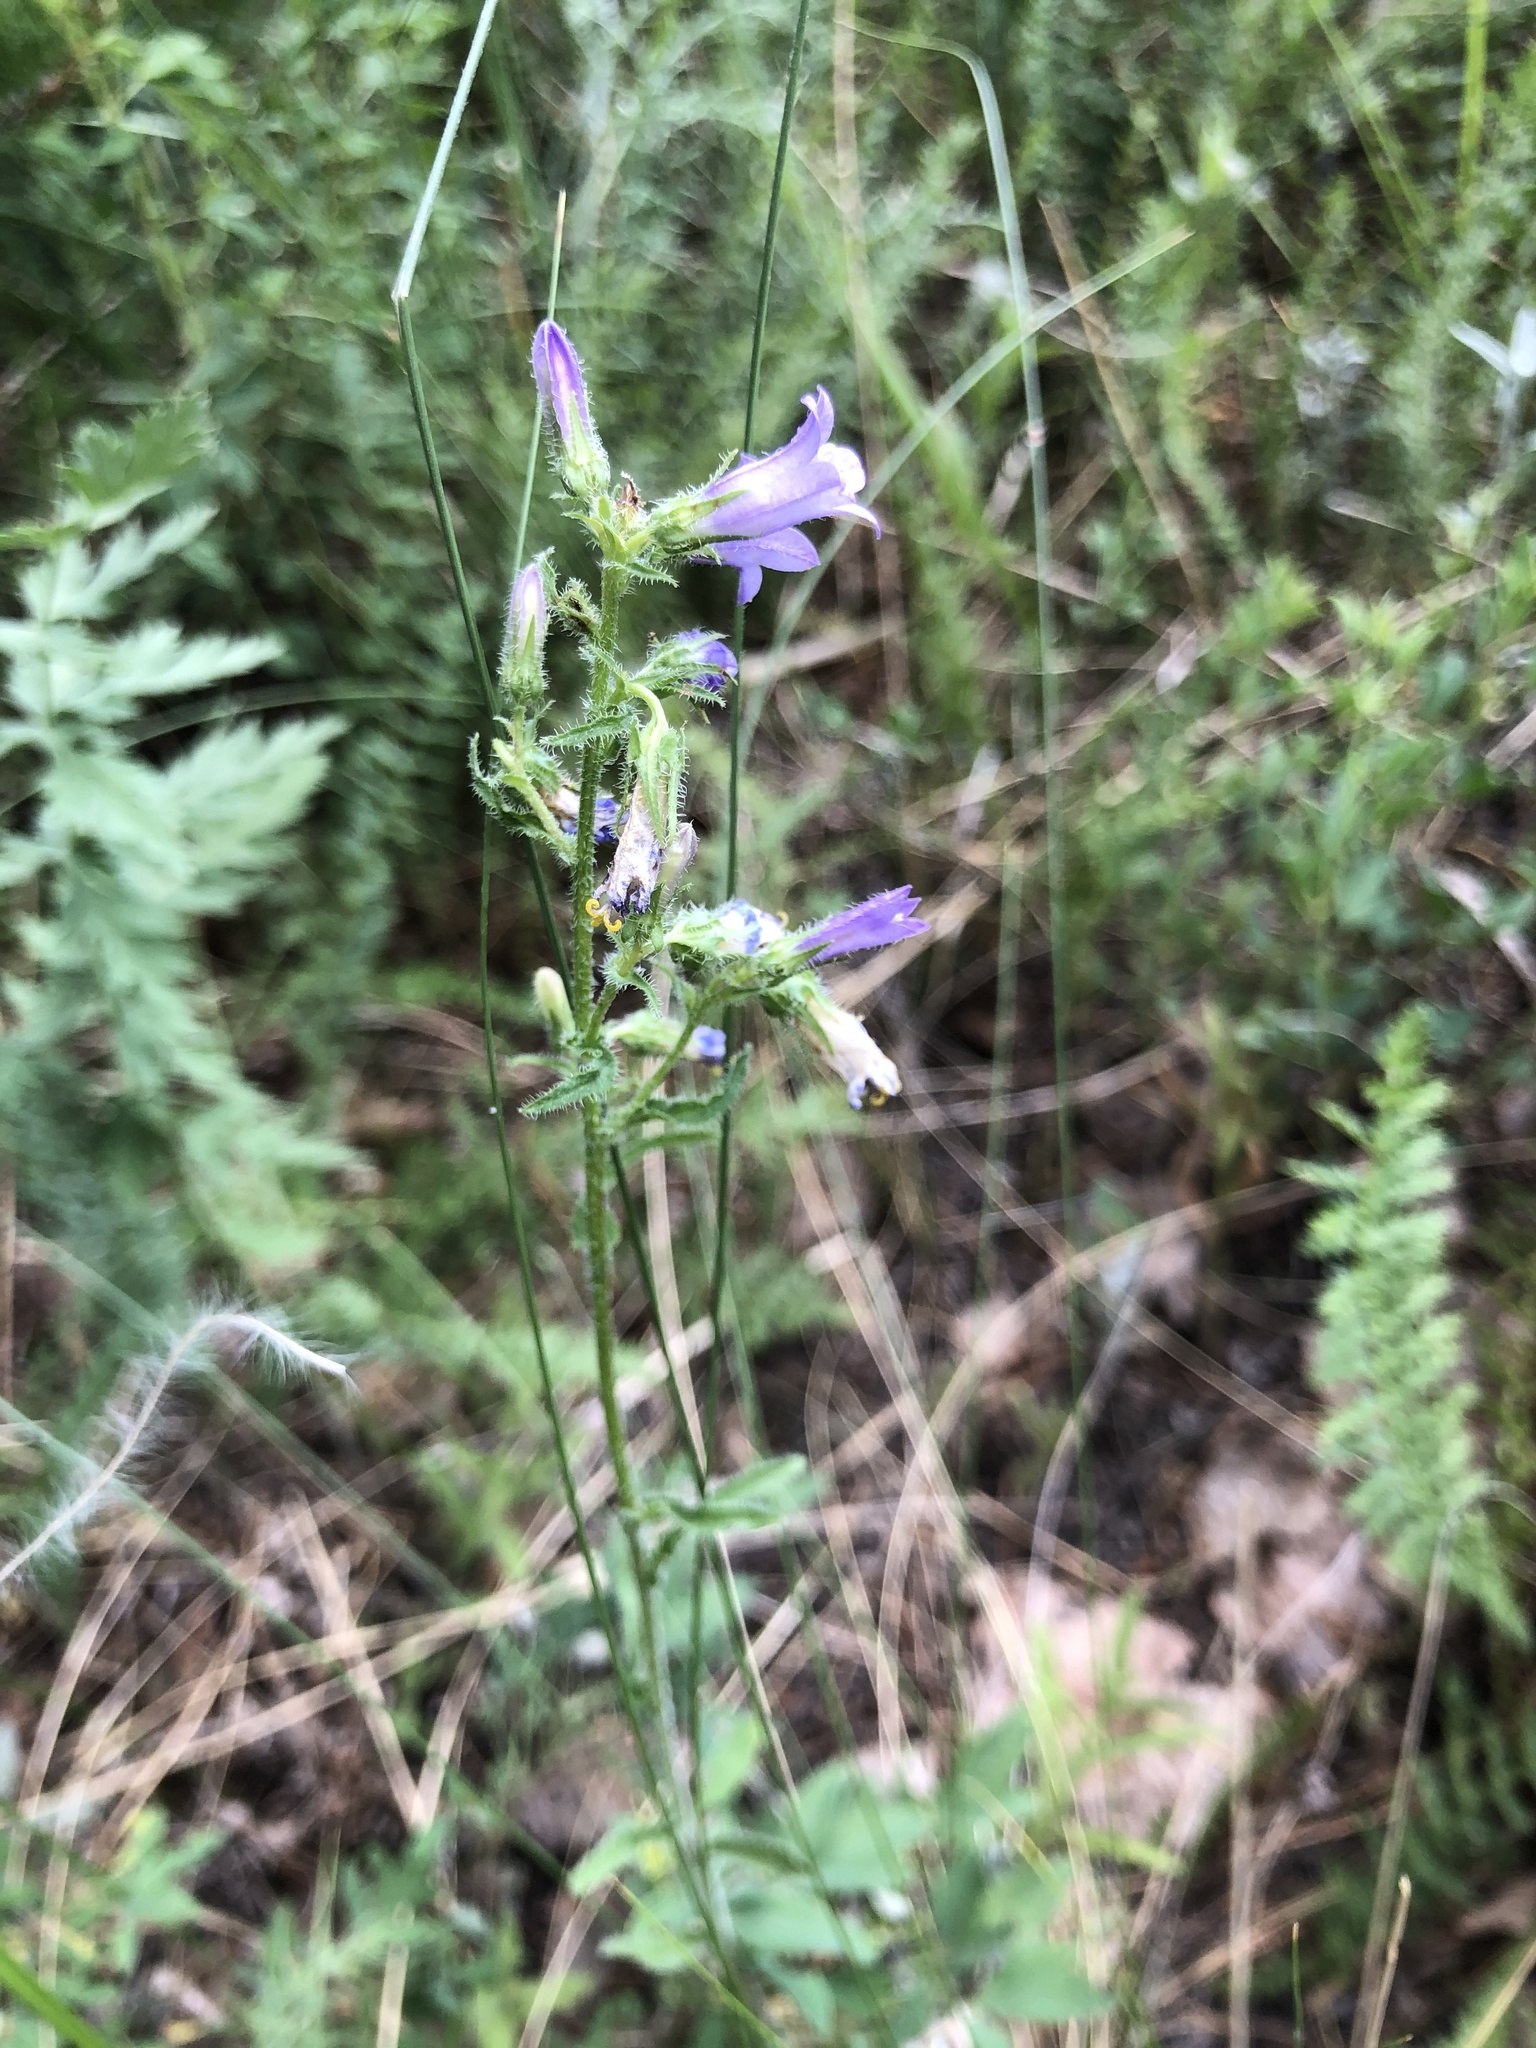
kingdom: Plantae
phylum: Tracheophyta
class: Magnoliopsida
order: Asterales
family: Campanulaceae
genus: Campanula
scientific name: Campanula sibirica
